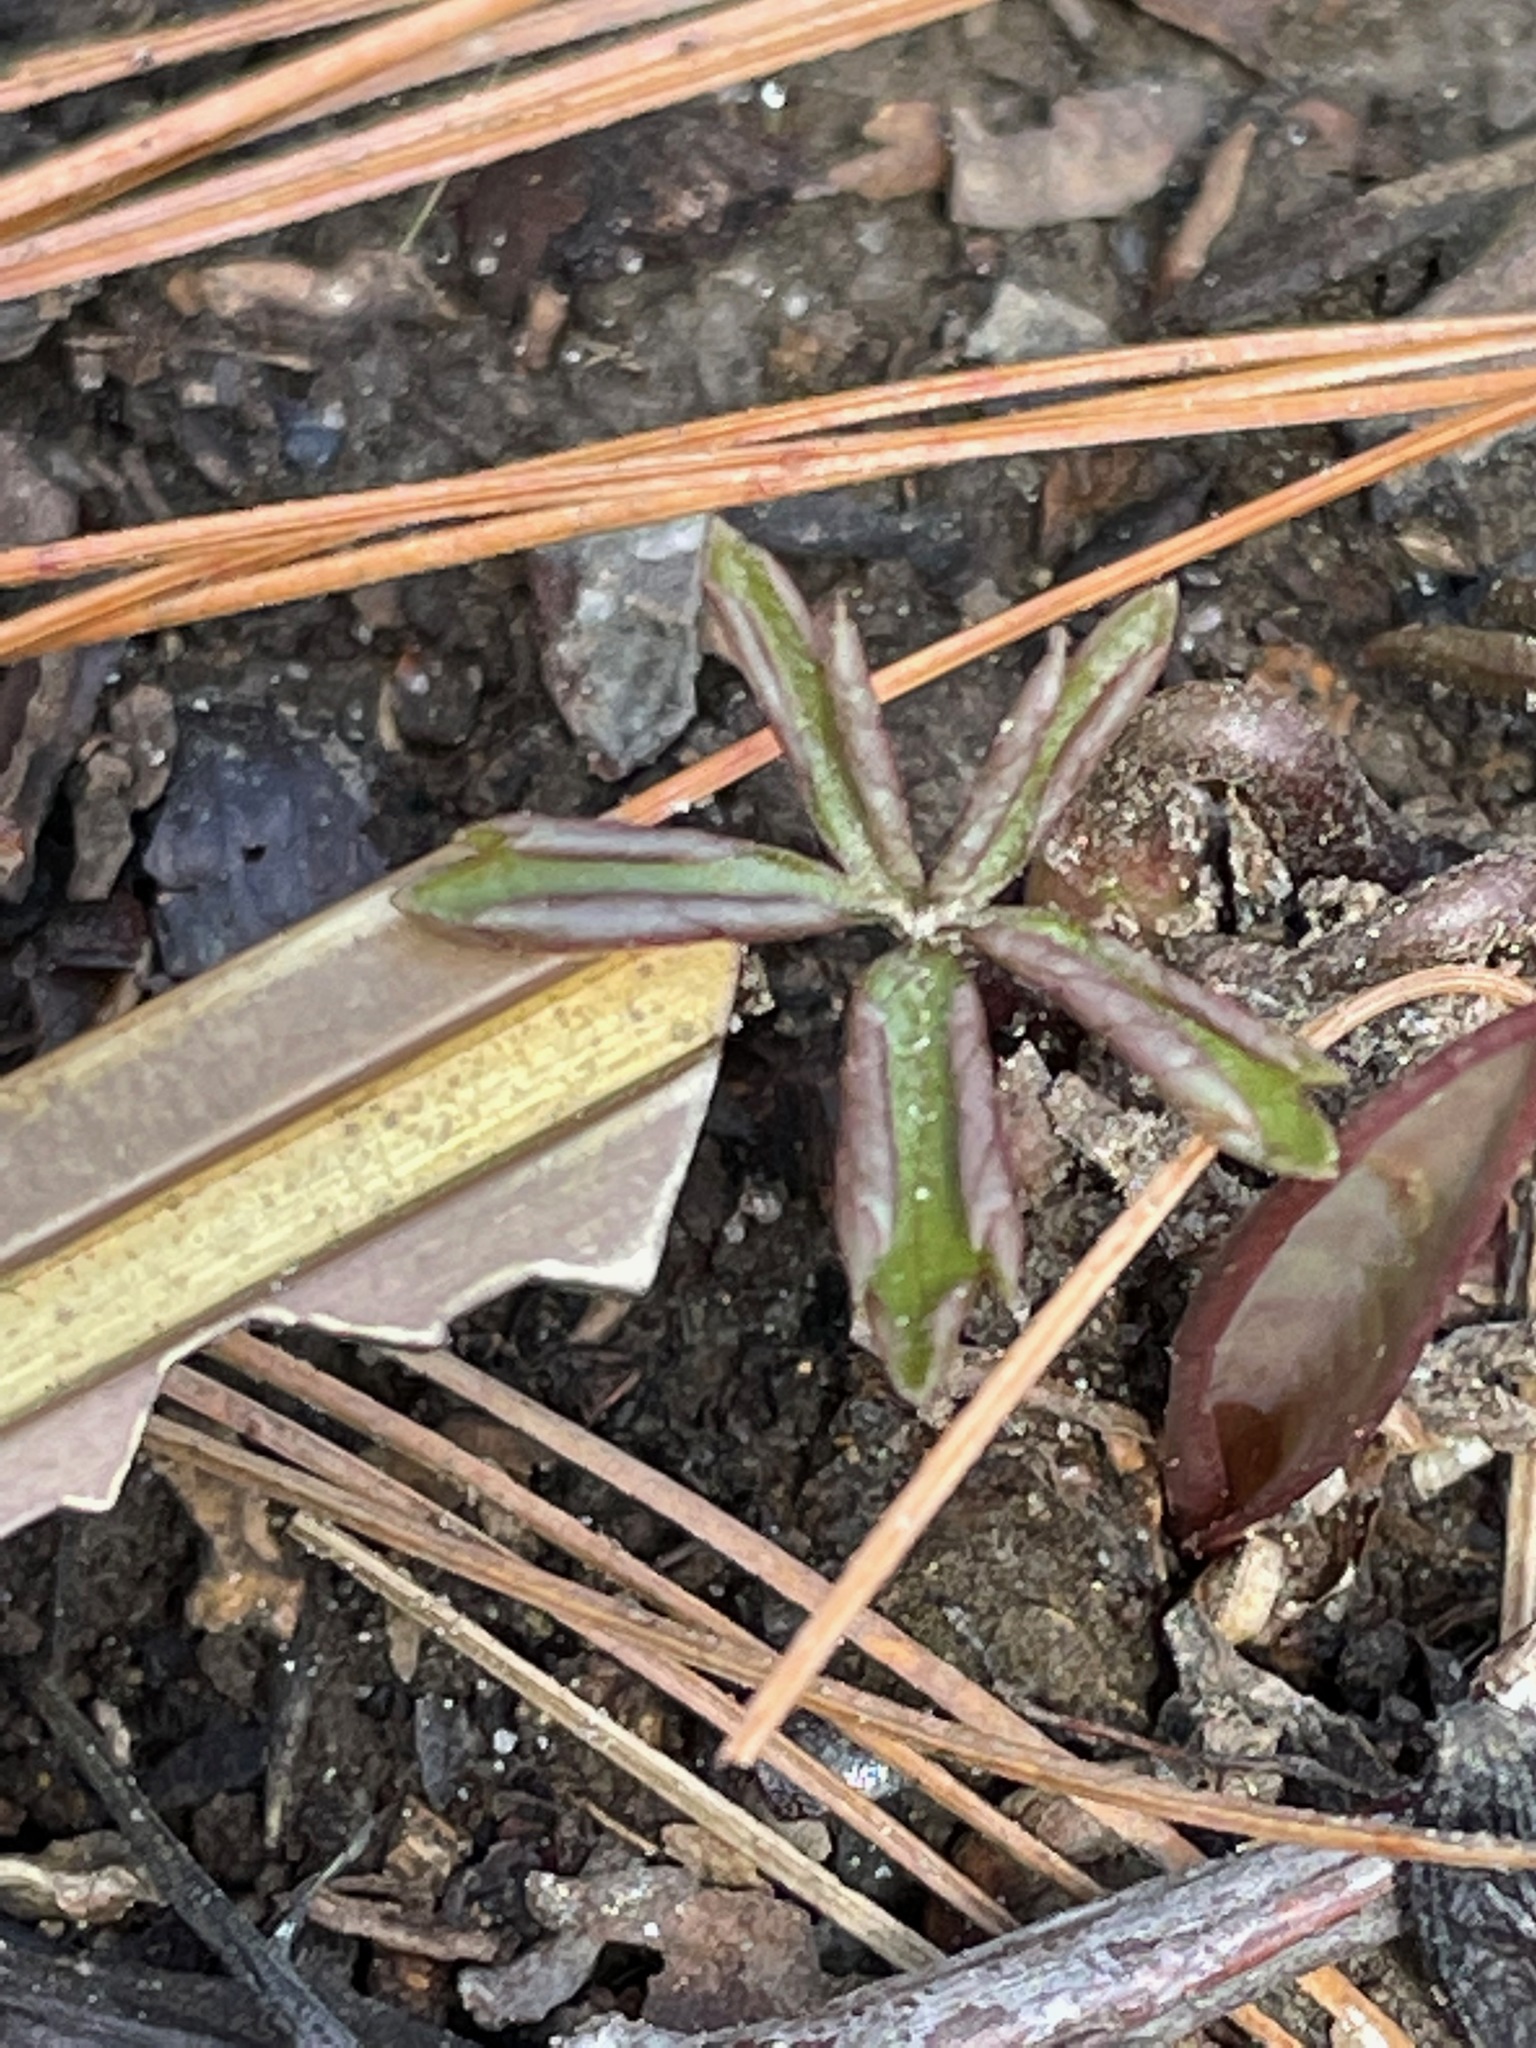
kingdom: Plantae
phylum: Tracheophyta
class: Magnoliopsida
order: Ranunculales
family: Ranunculaceae
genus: Anemone
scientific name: Anemone quinquefolia
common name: Wood anemone
